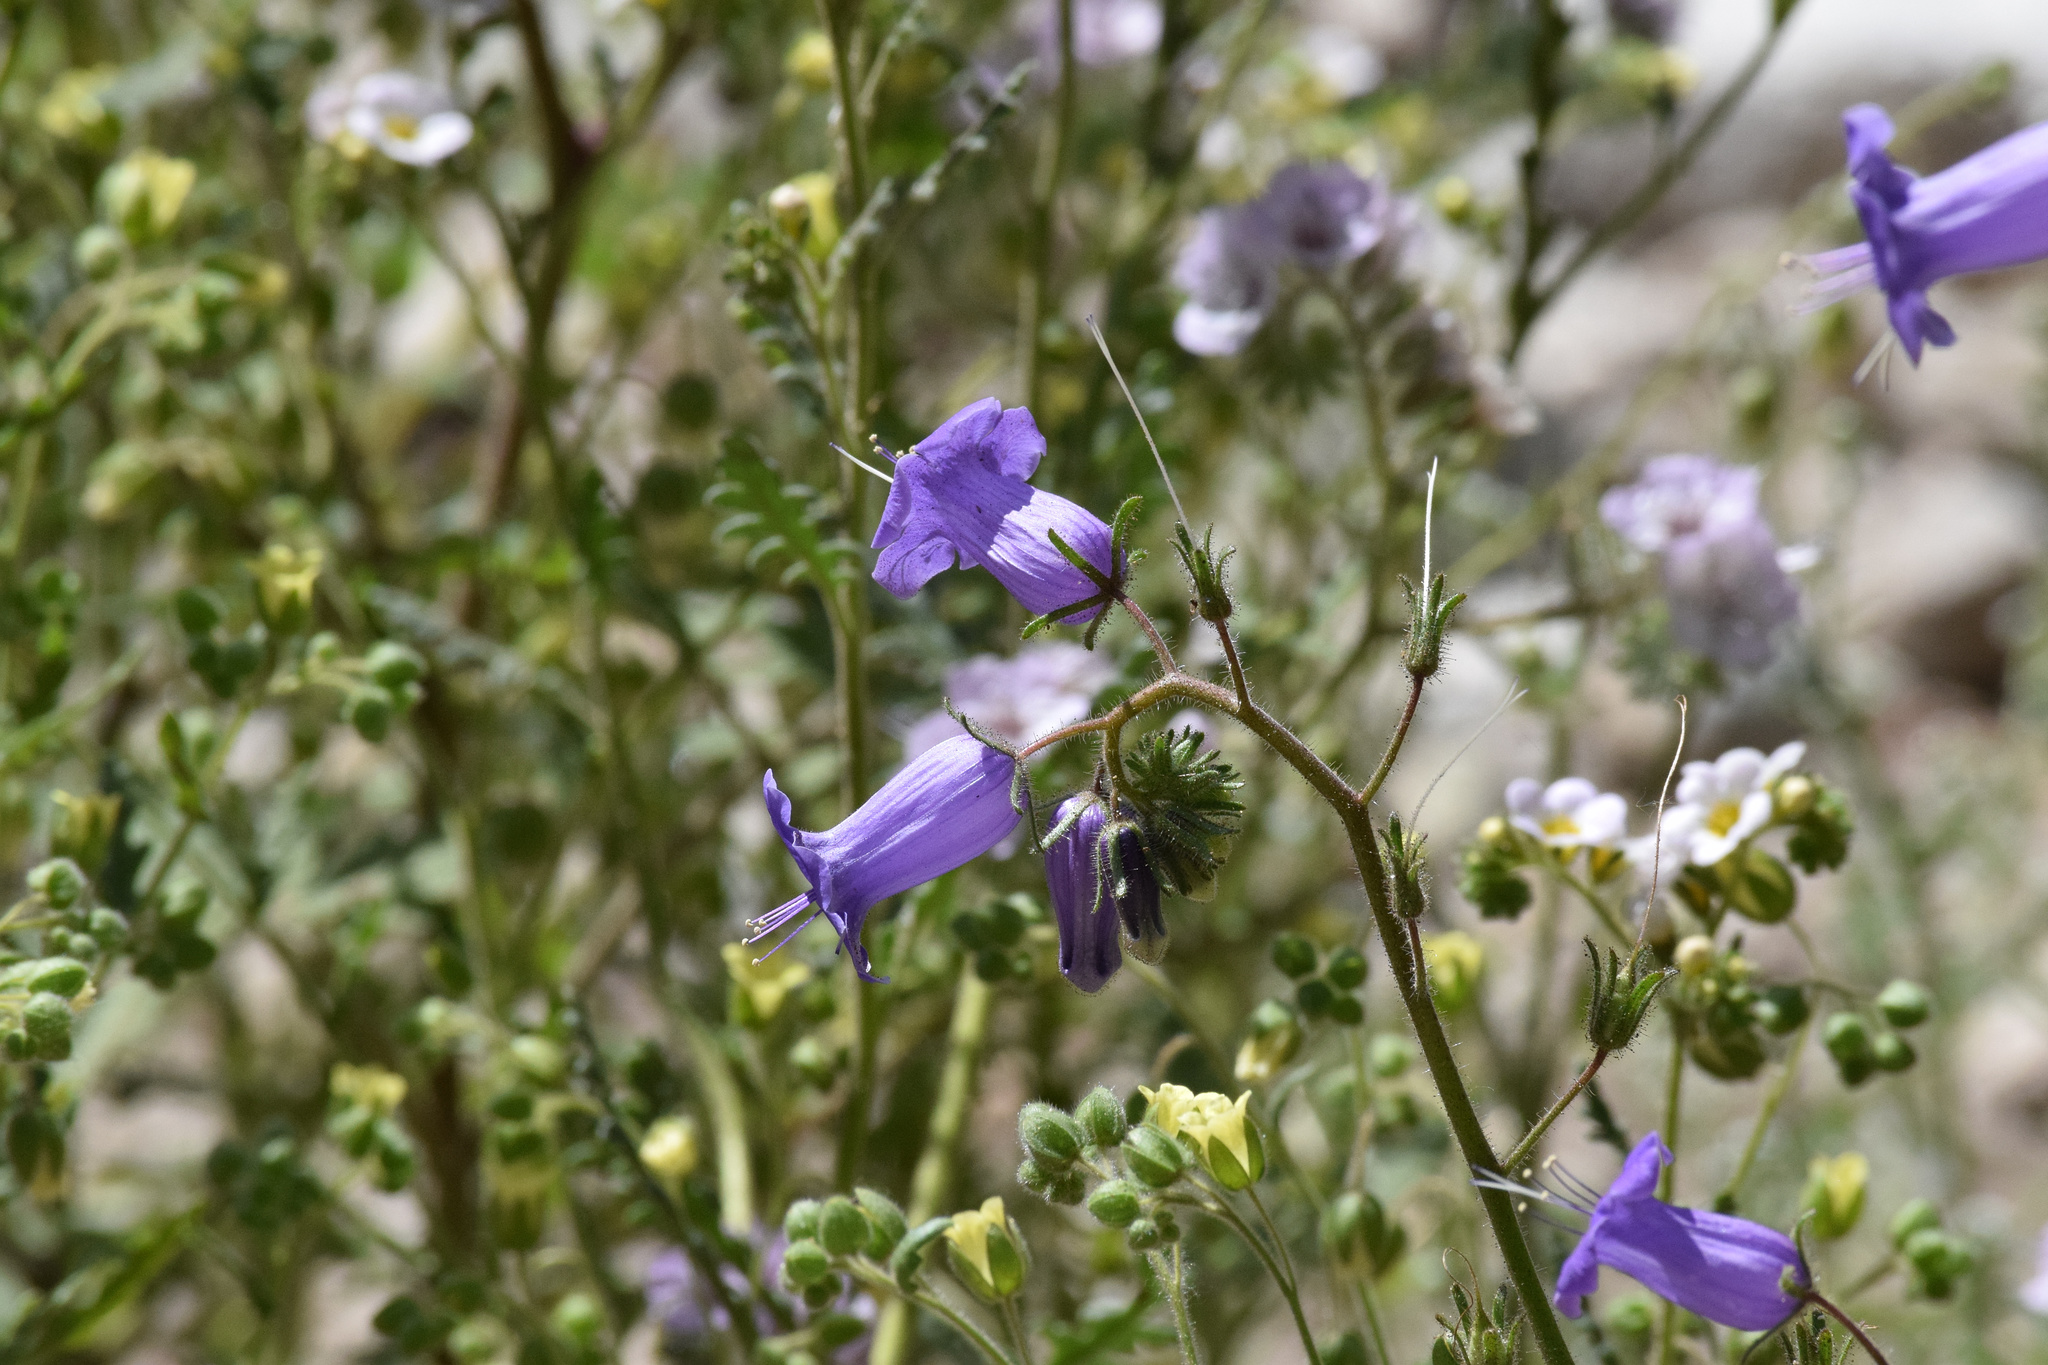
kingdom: Plantae
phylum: Tracheophyta
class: Magnoliopsida
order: Boraginales
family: Hydrophyllaceae
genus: Phacelia
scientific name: Phacelia minor
